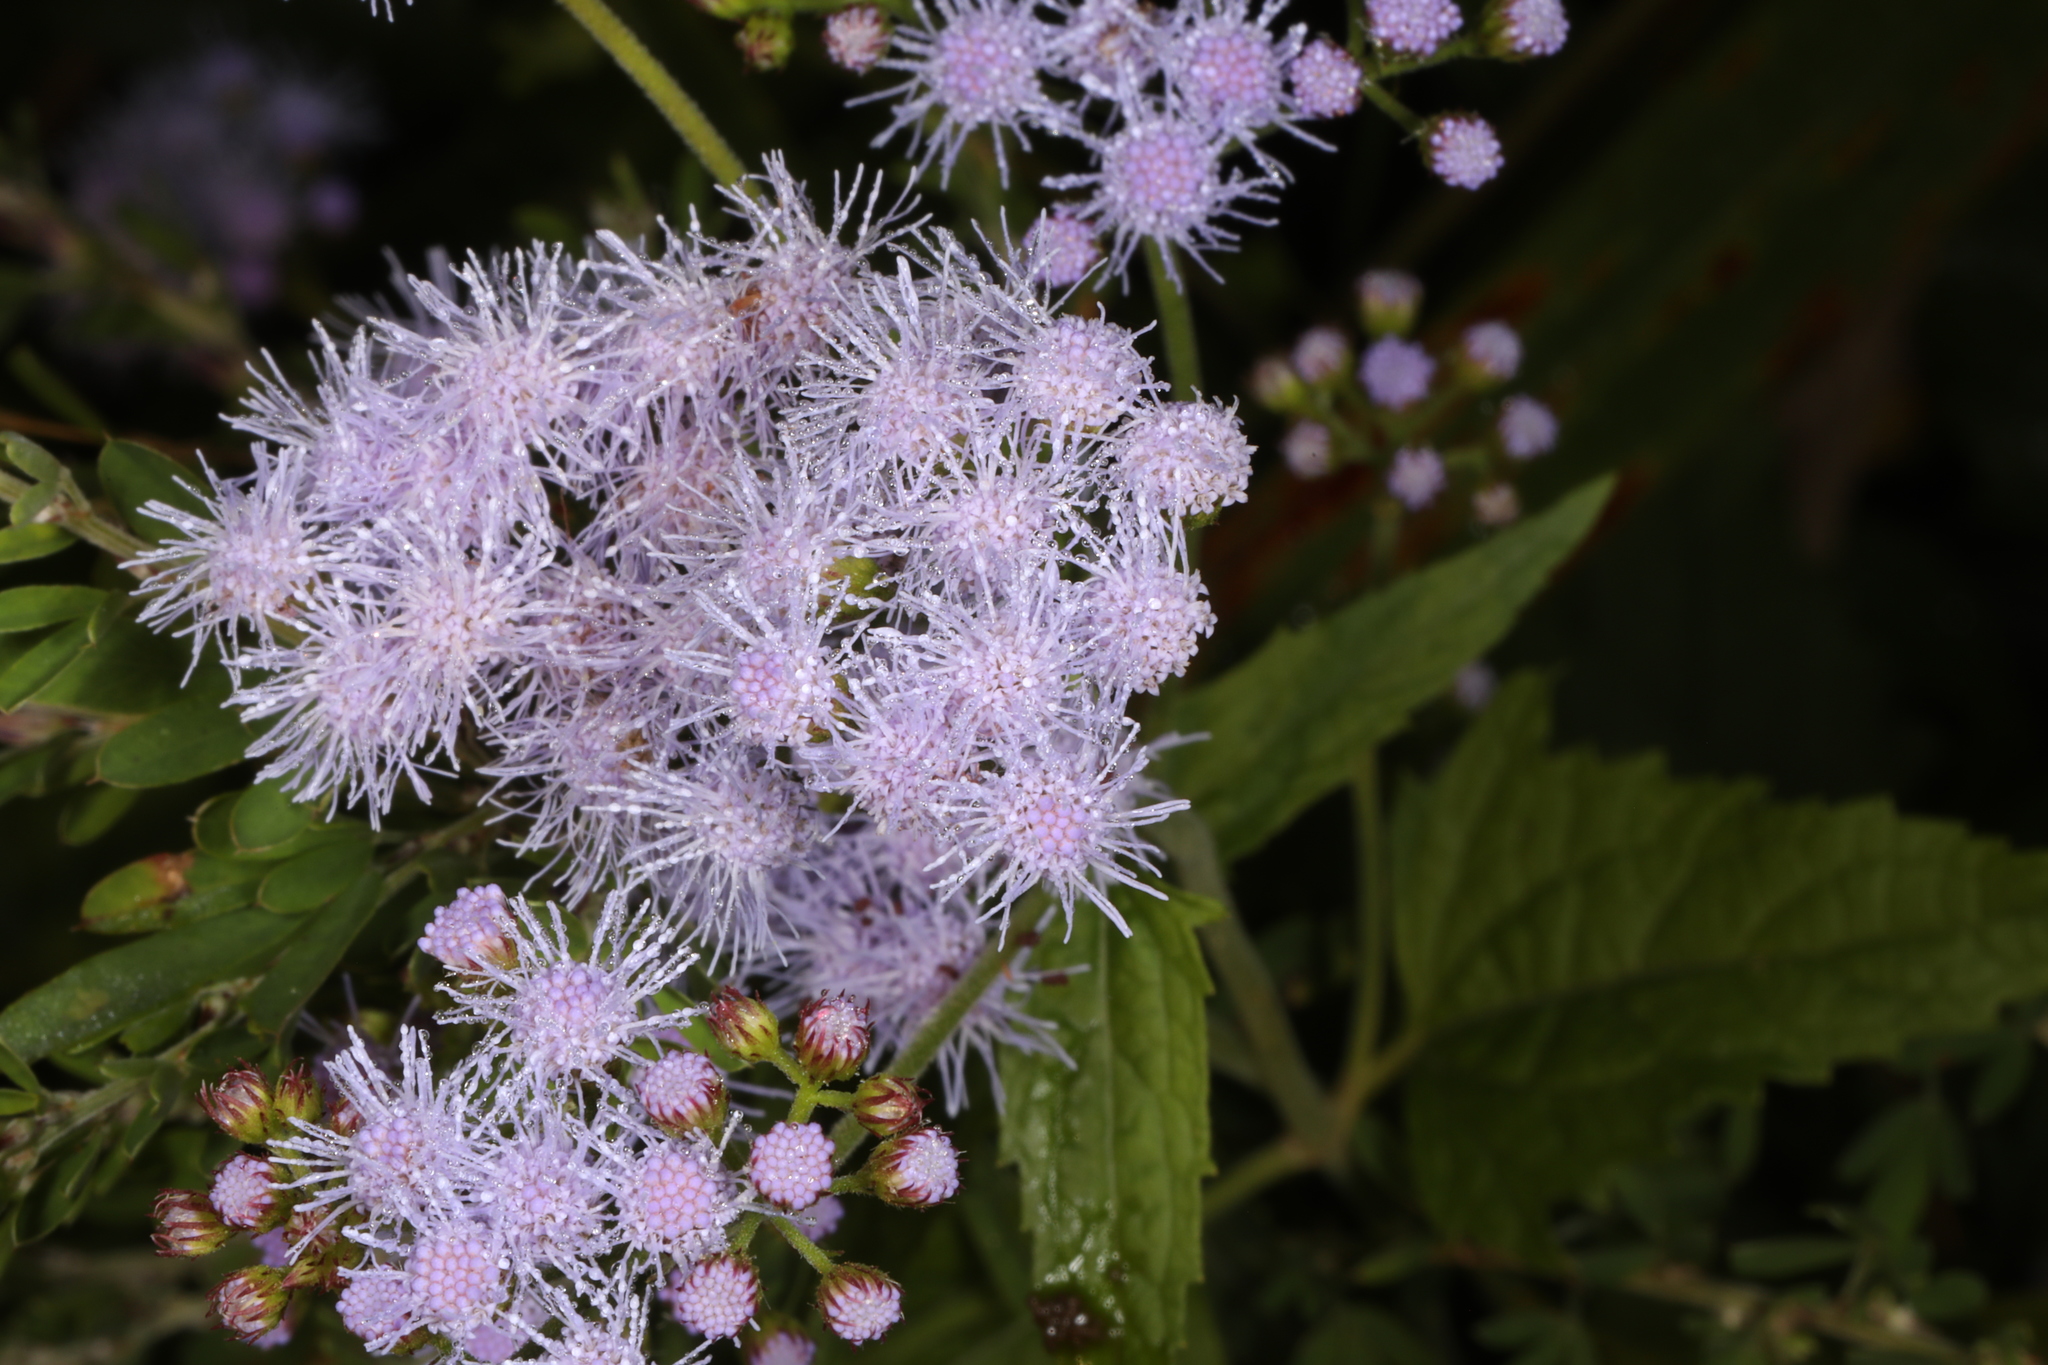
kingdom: Plantae
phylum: Tracheophyta
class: Magnoliopsida
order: Asterales
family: Asteraceae
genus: Conoclinium
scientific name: Conoclinium coelestinum
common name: Blue mistflower
